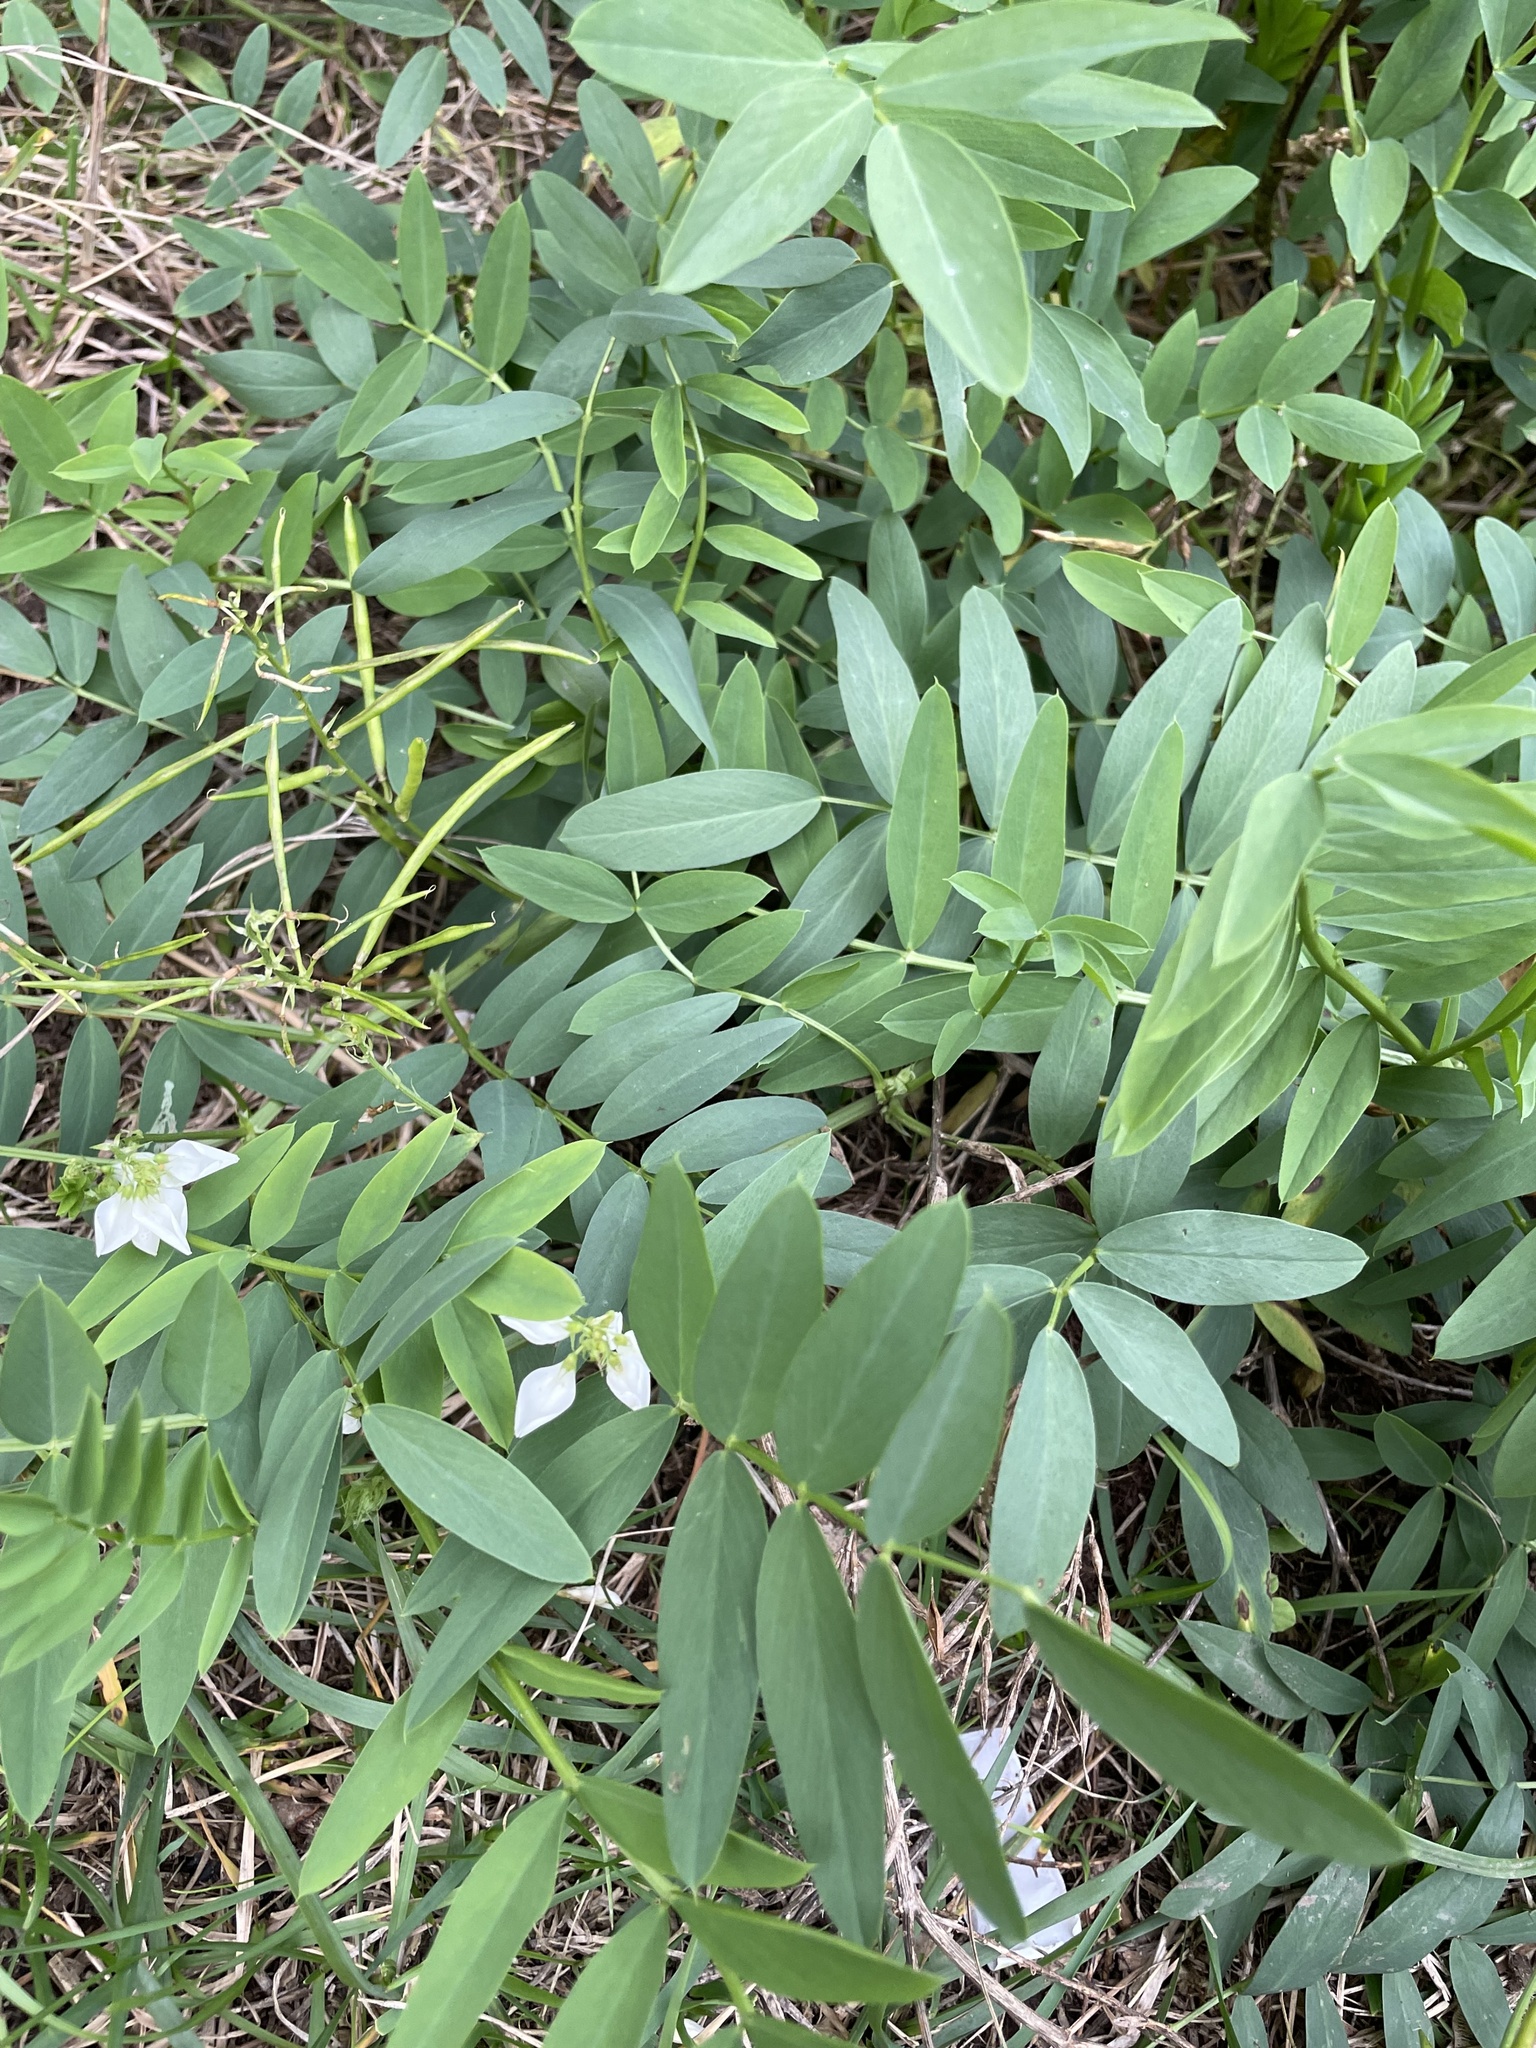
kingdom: Plantae
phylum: Tracheophyta
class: Magnoliopsida
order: Fabales
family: Fabaceae
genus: Galega
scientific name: Galega officinalis
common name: Goat's-rue
